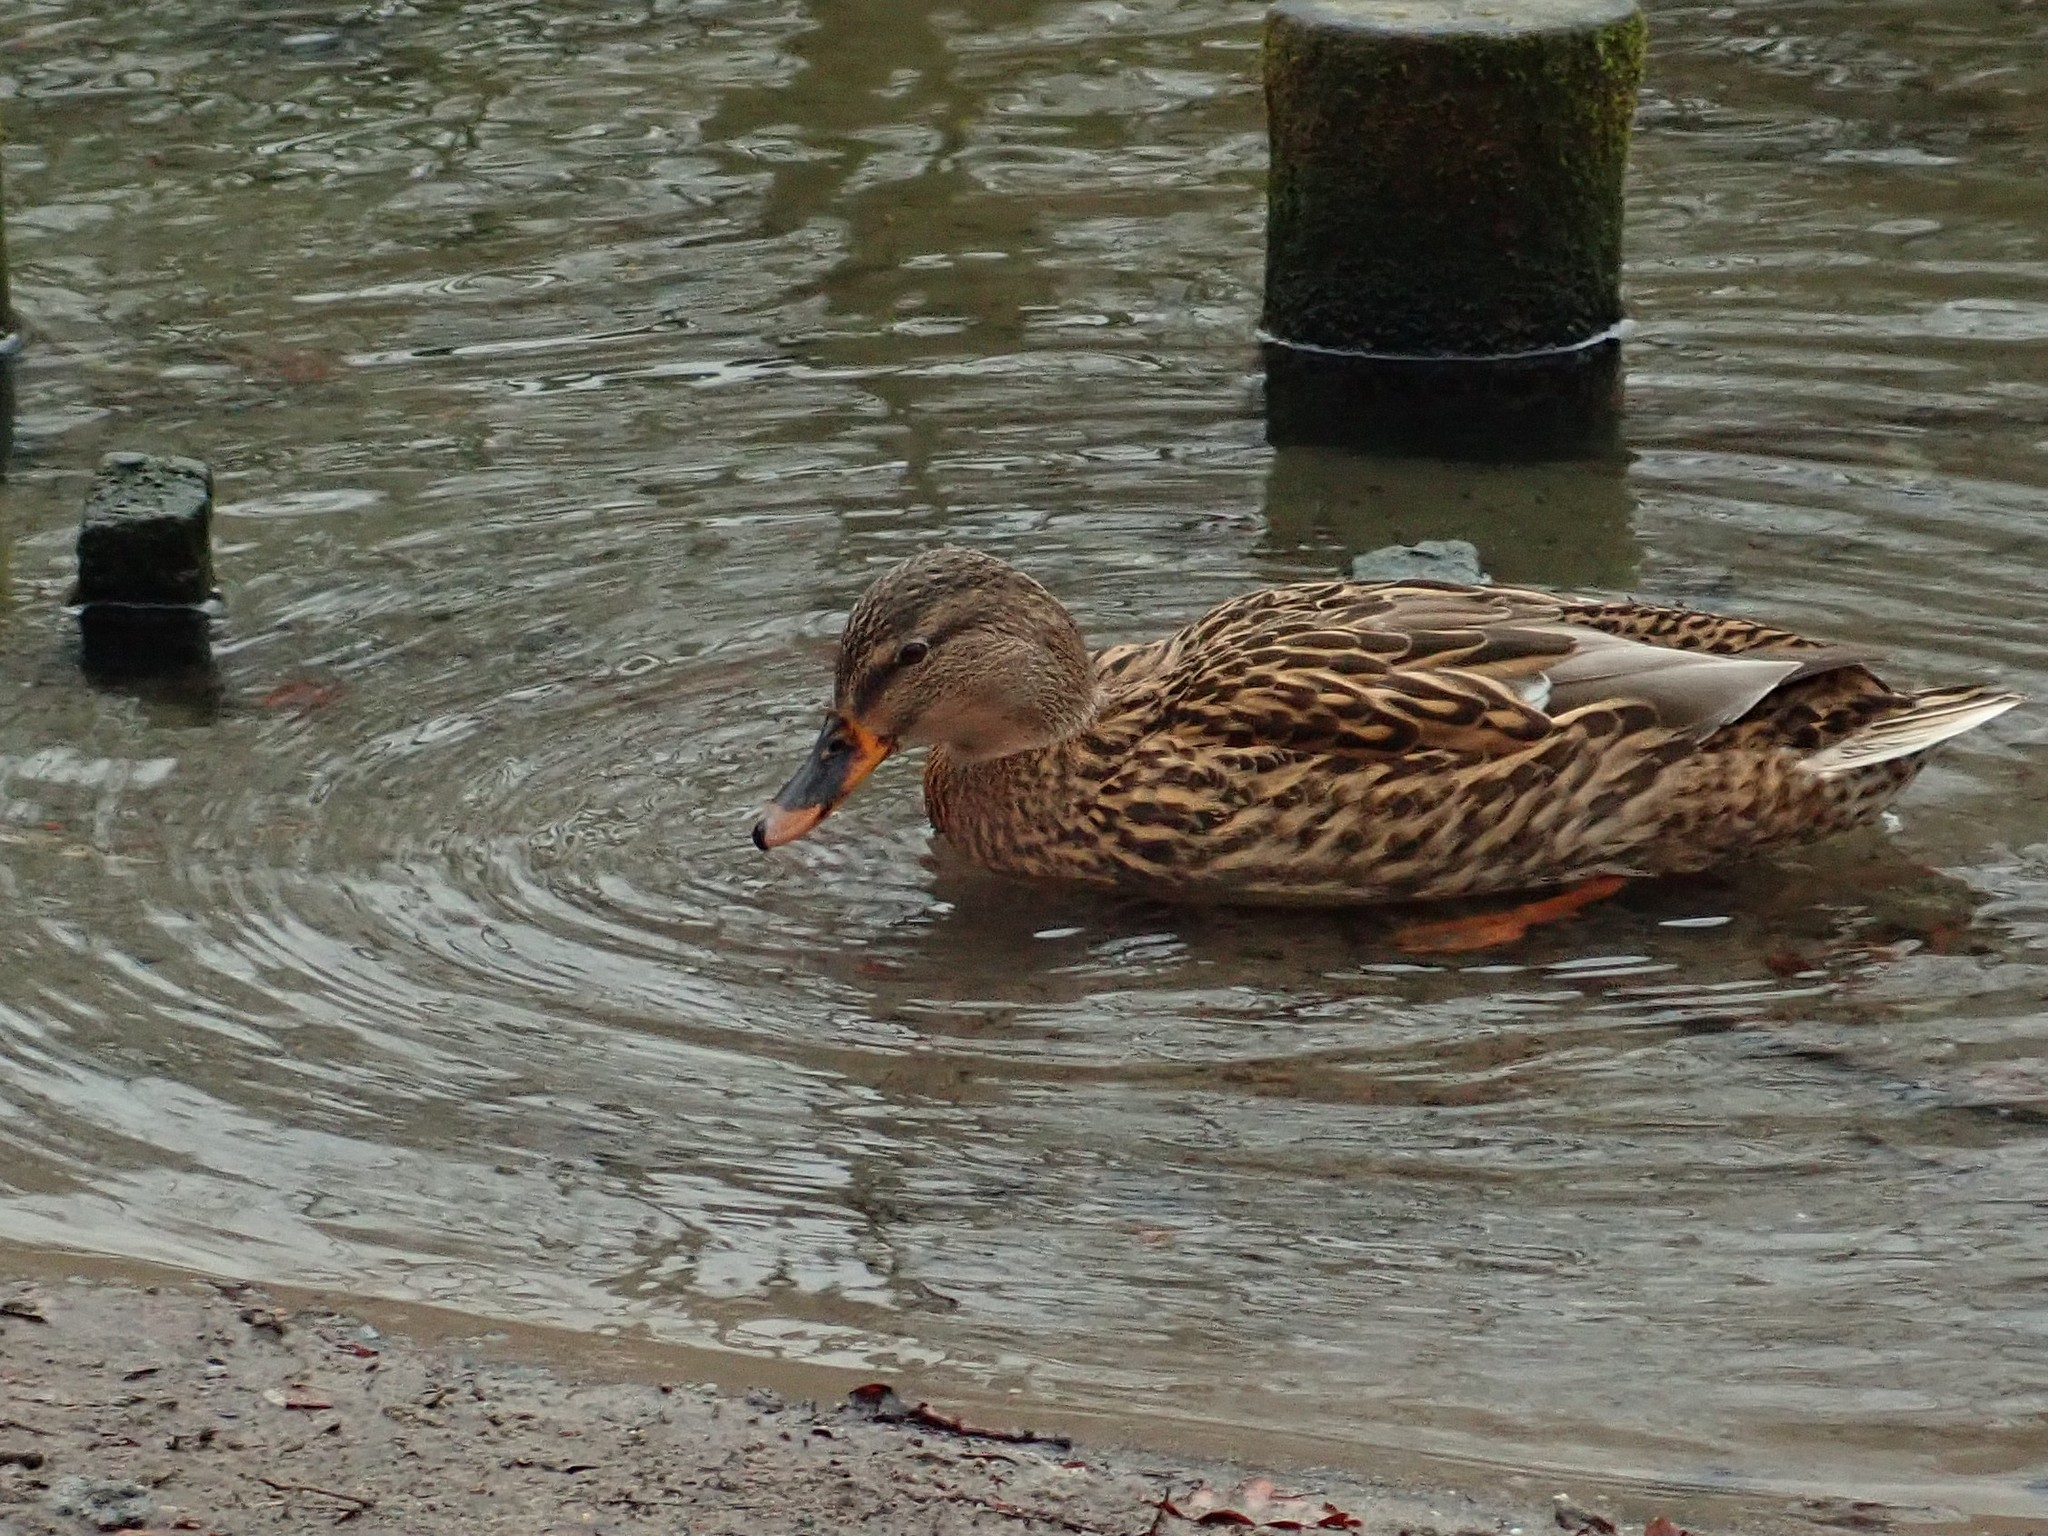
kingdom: Animalia
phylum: Chordata
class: Aves
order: Anseriformes
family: Anatidae
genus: Anas
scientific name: Anas platyrhynchos
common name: Mallard
